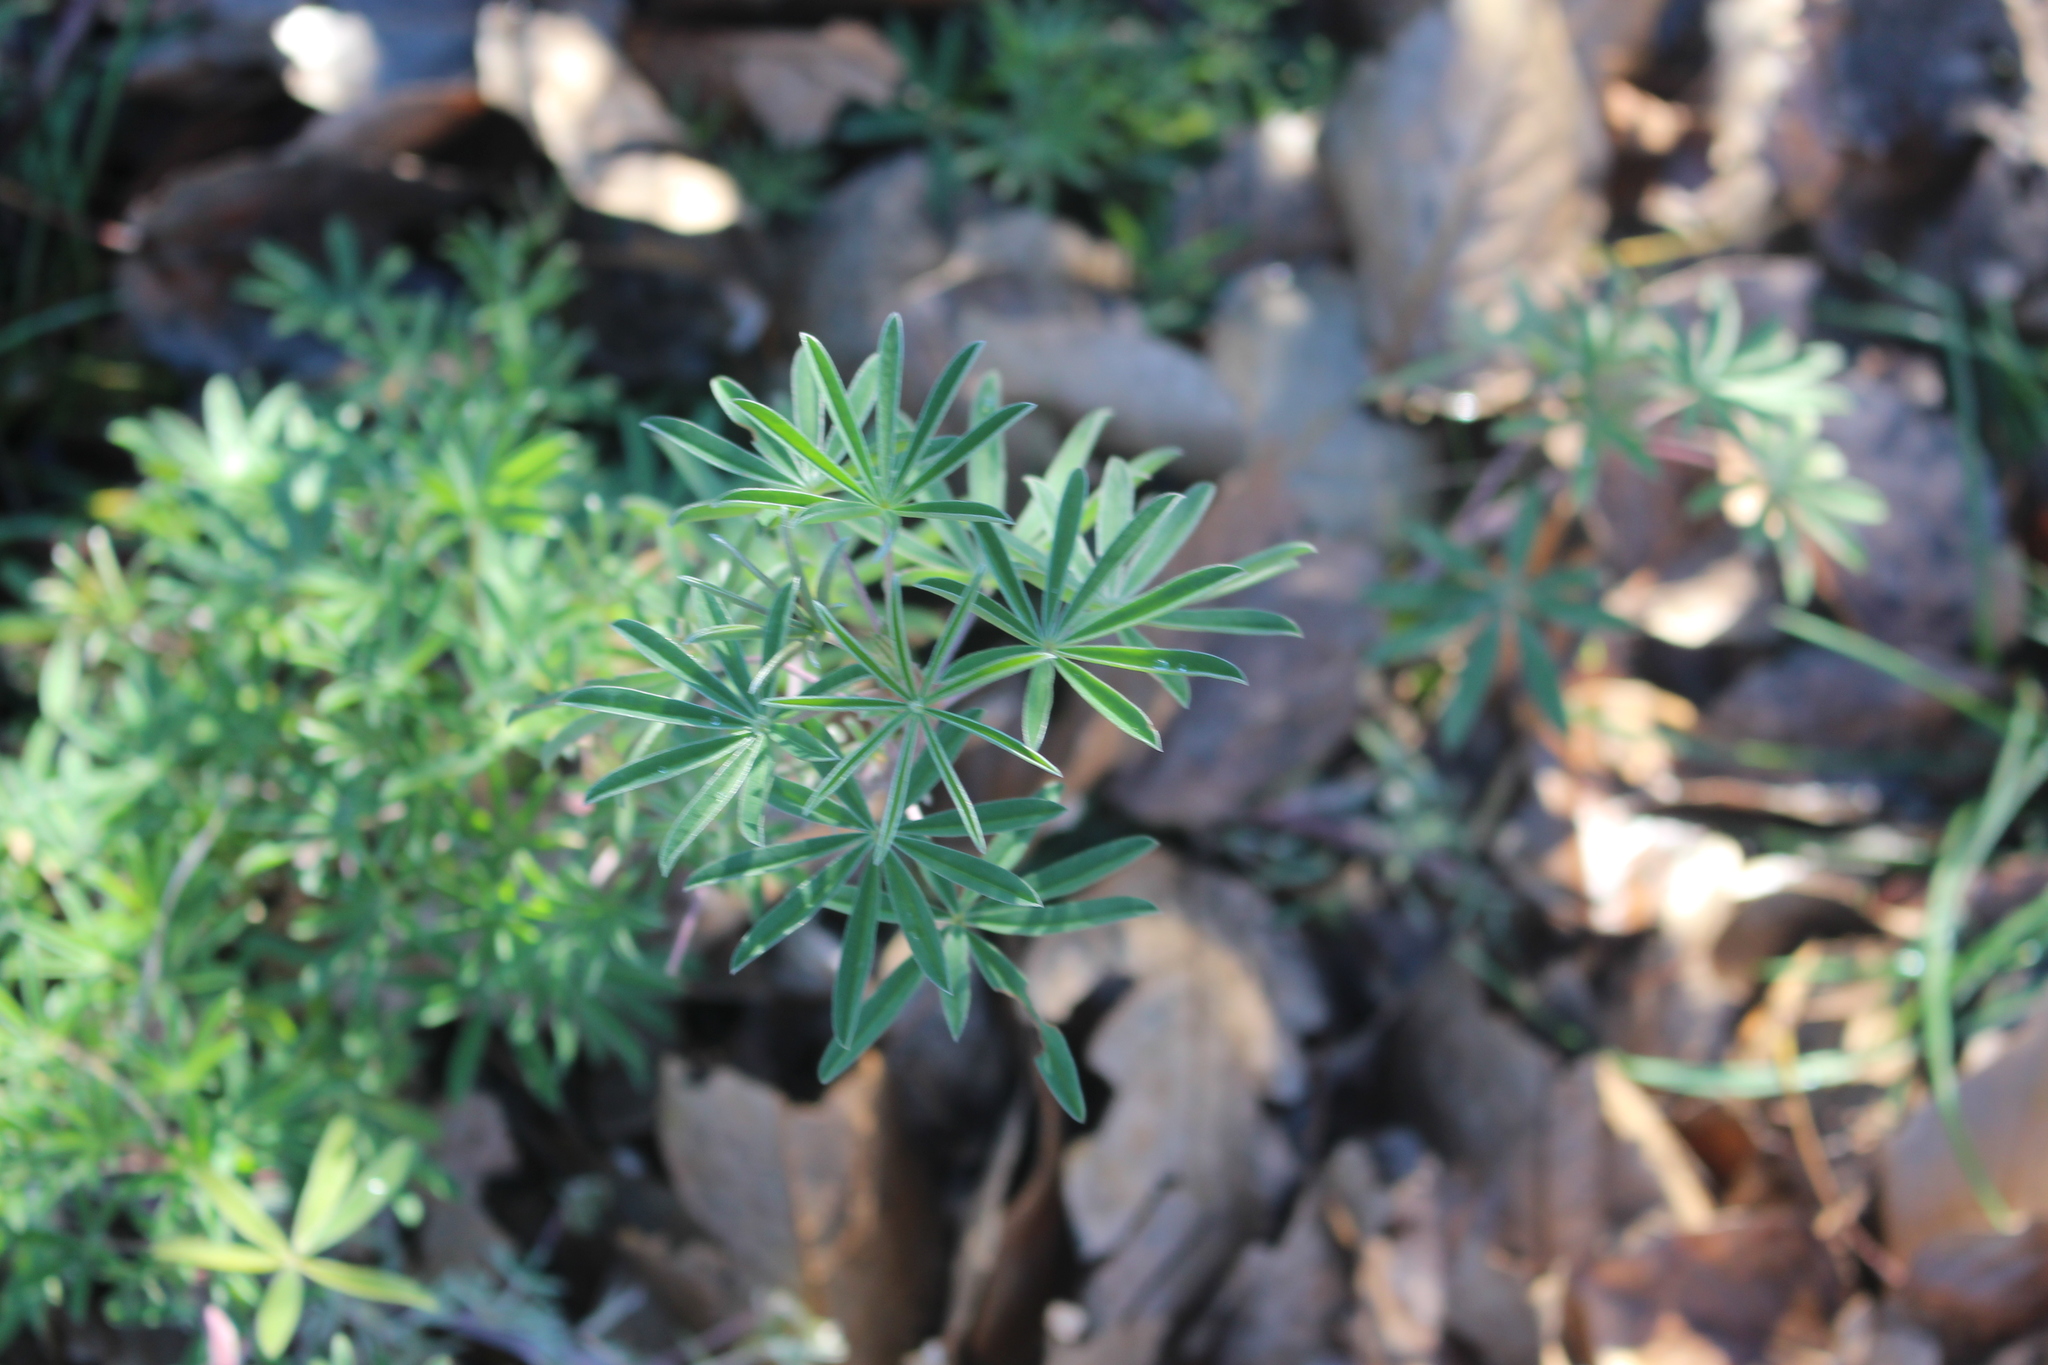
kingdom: Plantae
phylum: Tracheophyta
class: Magnoliopsida
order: Fabales
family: Fabaceae
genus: Lupinus
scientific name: Lupinus arboreus
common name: Yellow bush lupine
